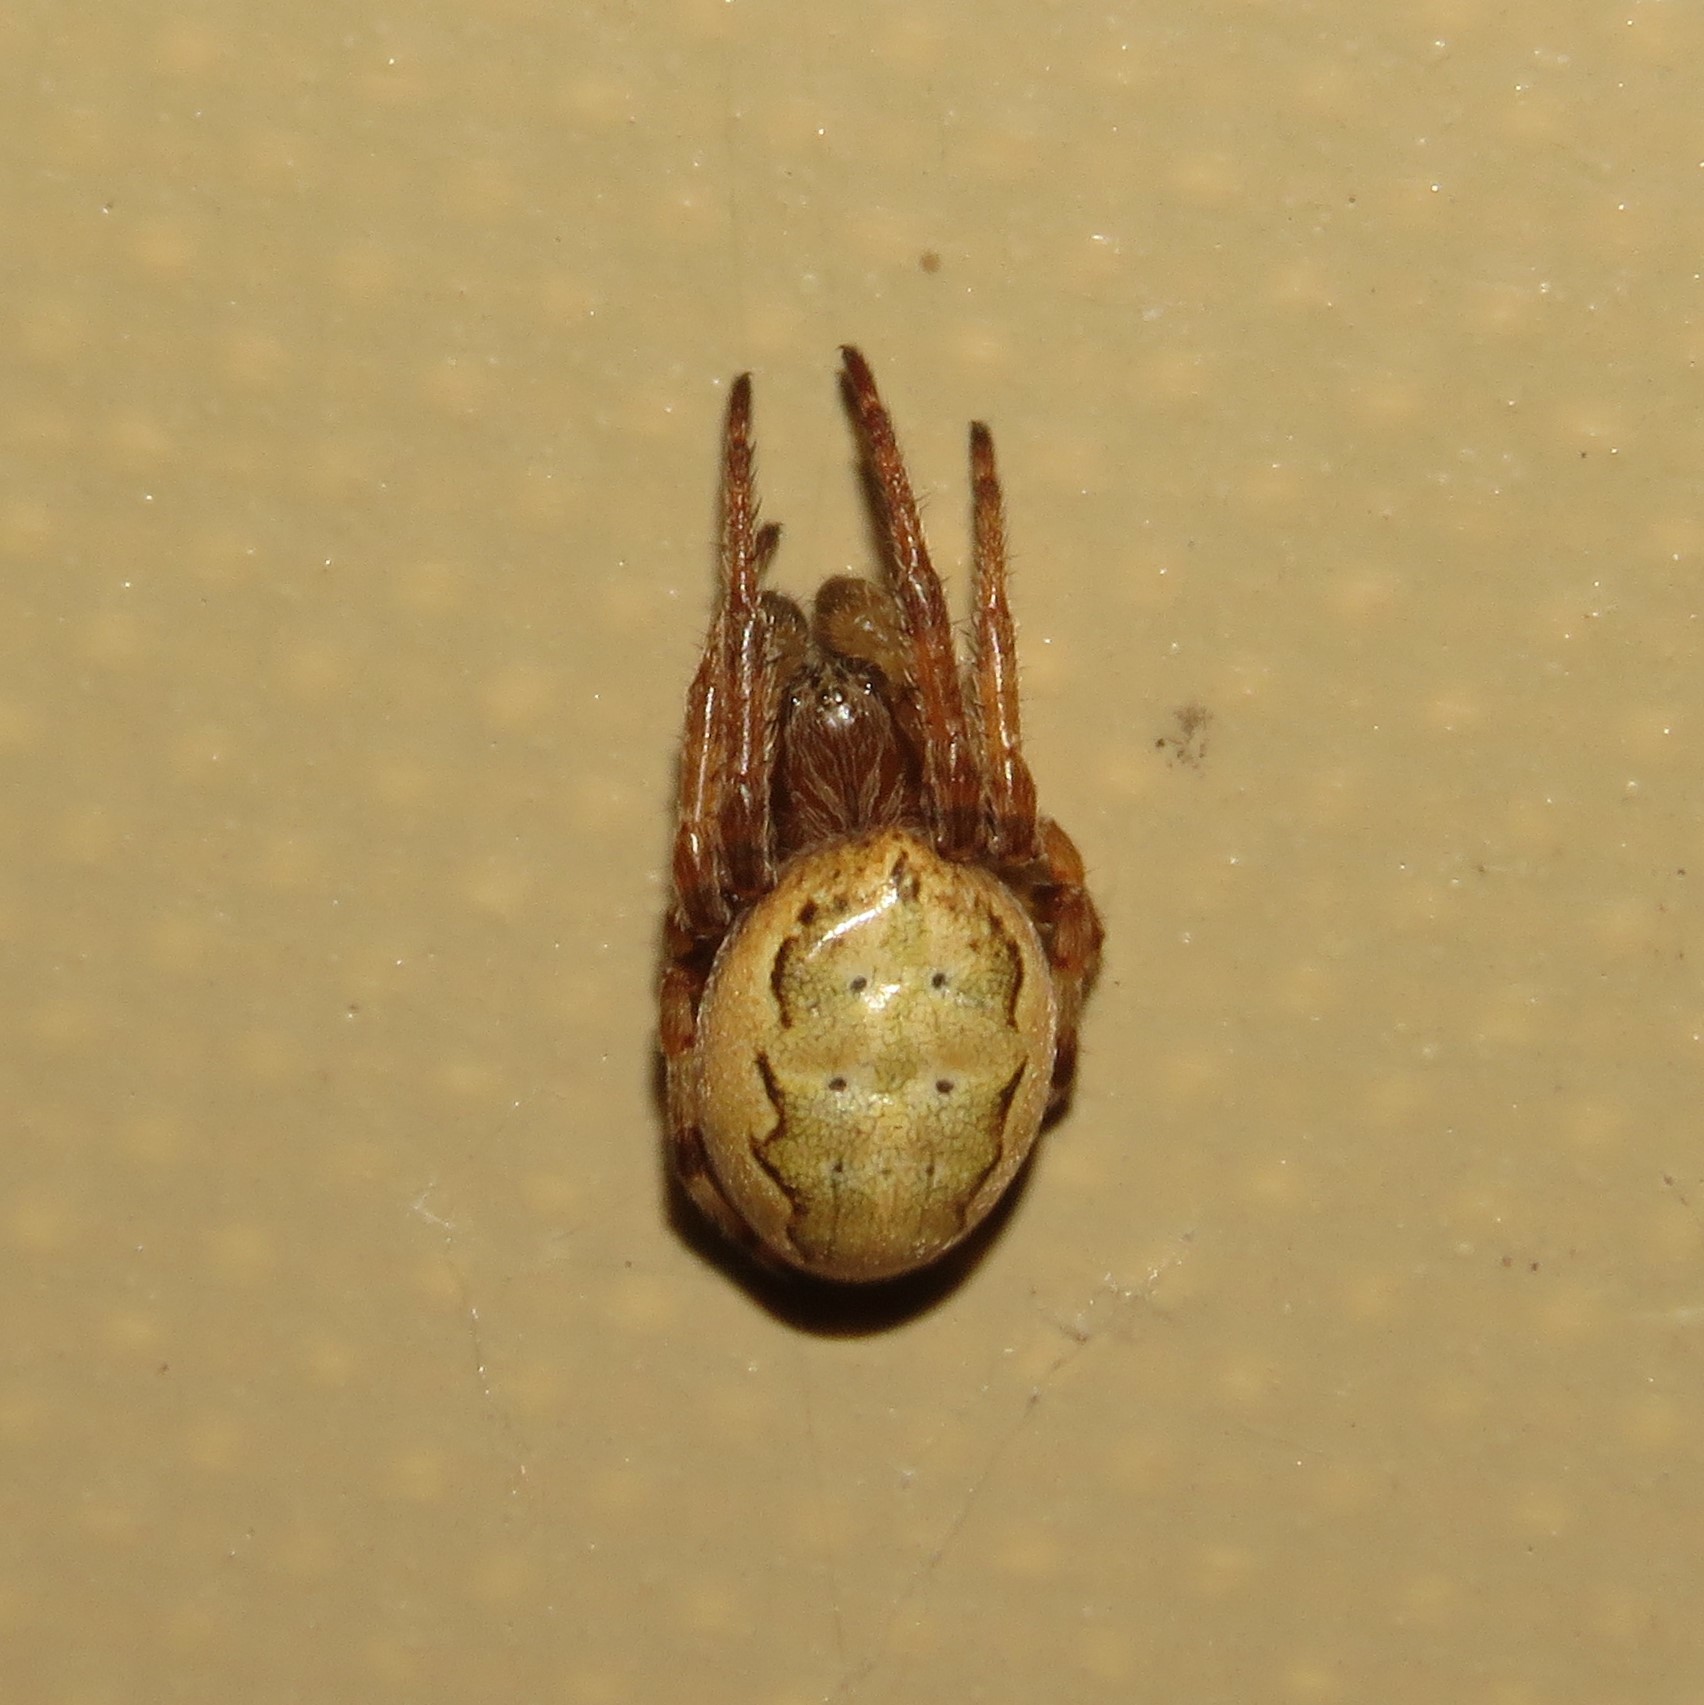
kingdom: Animalia
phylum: Arthropoda
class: Arachnida
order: Araneae
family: Araneidae
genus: Larinioides
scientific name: Larinioides cornutus
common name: Furrow orbweaver
